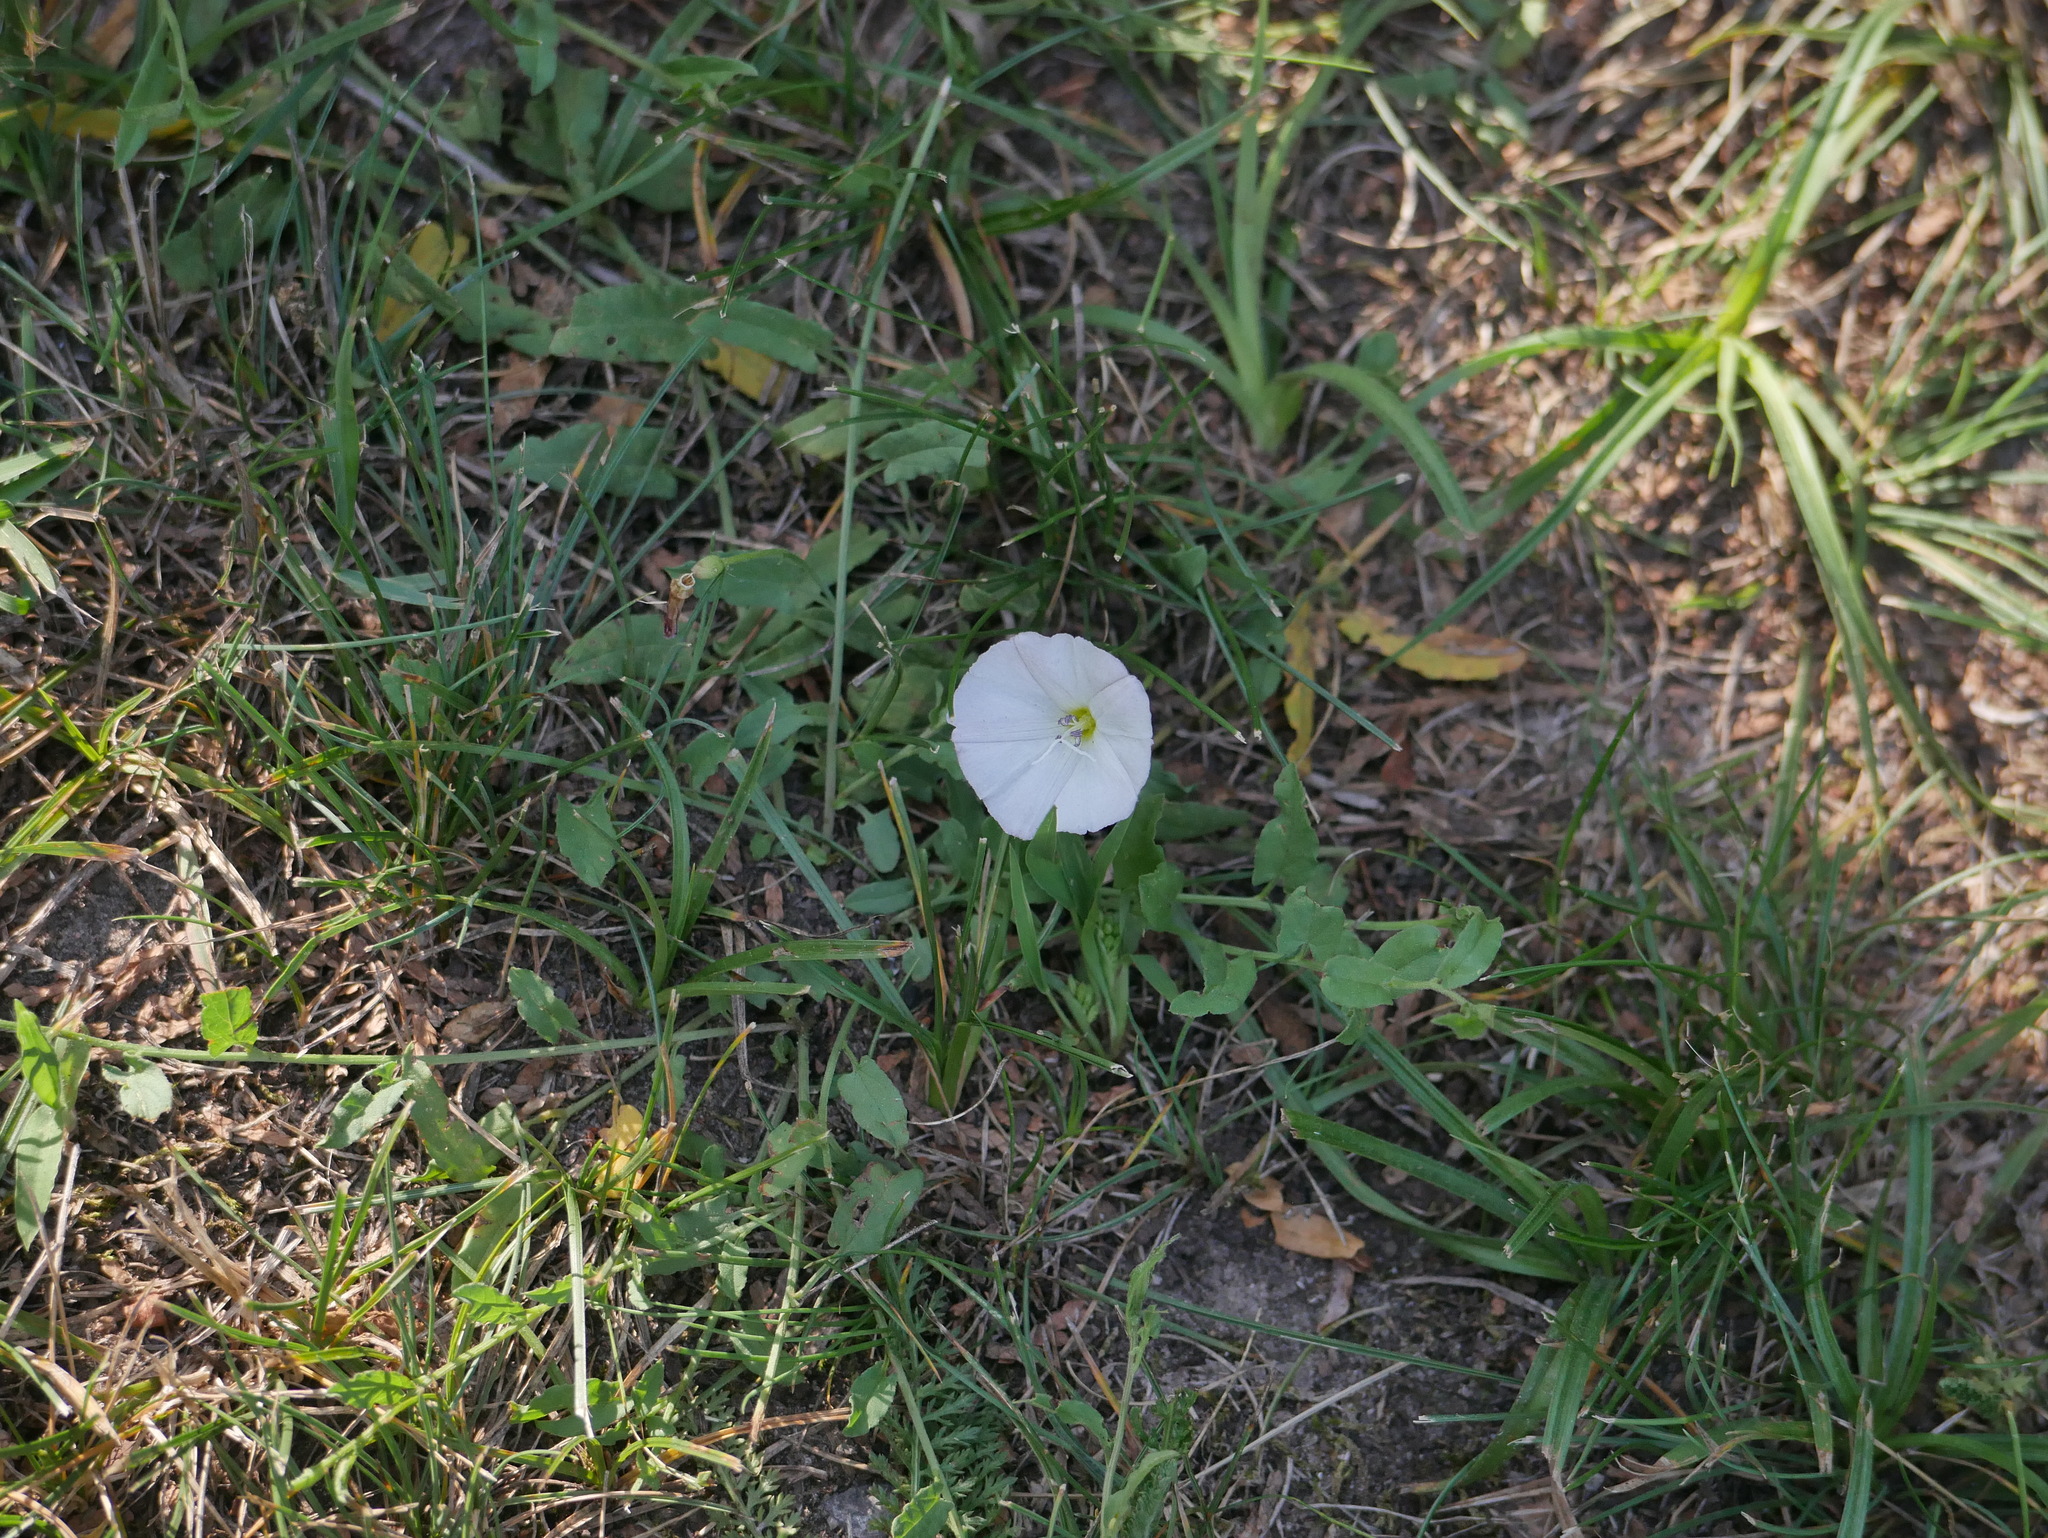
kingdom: Plantae
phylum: Tracheophyta
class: Magnoliopsida
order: Solanales
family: Convolvulaceae
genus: Convolvulus
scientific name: Convolvulus arvensis
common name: Field bindweed
